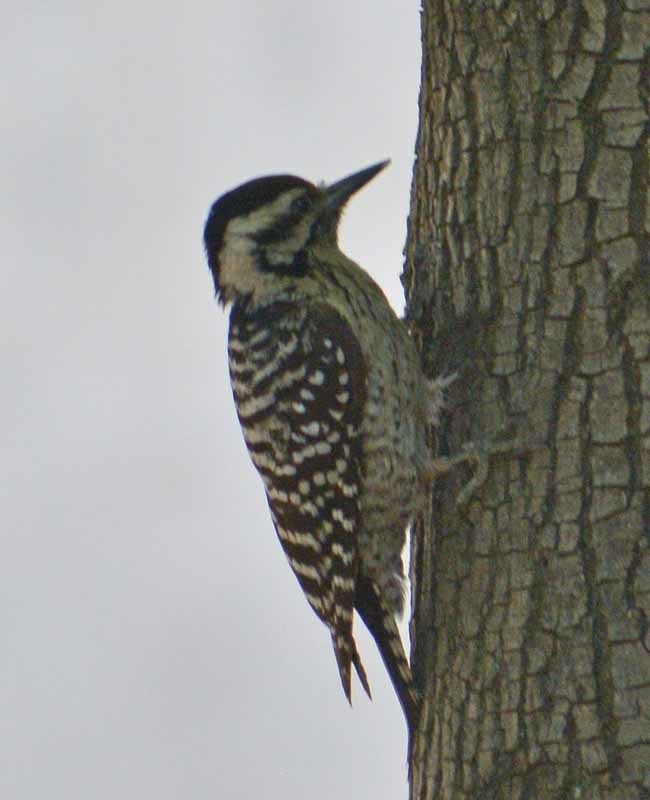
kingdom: Animalia
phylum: Chordata
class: Aves
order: Piciformes
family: Picidae
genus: Dryobates
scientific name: Dryobates scalaris
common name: Ladder-backed woodpecker
